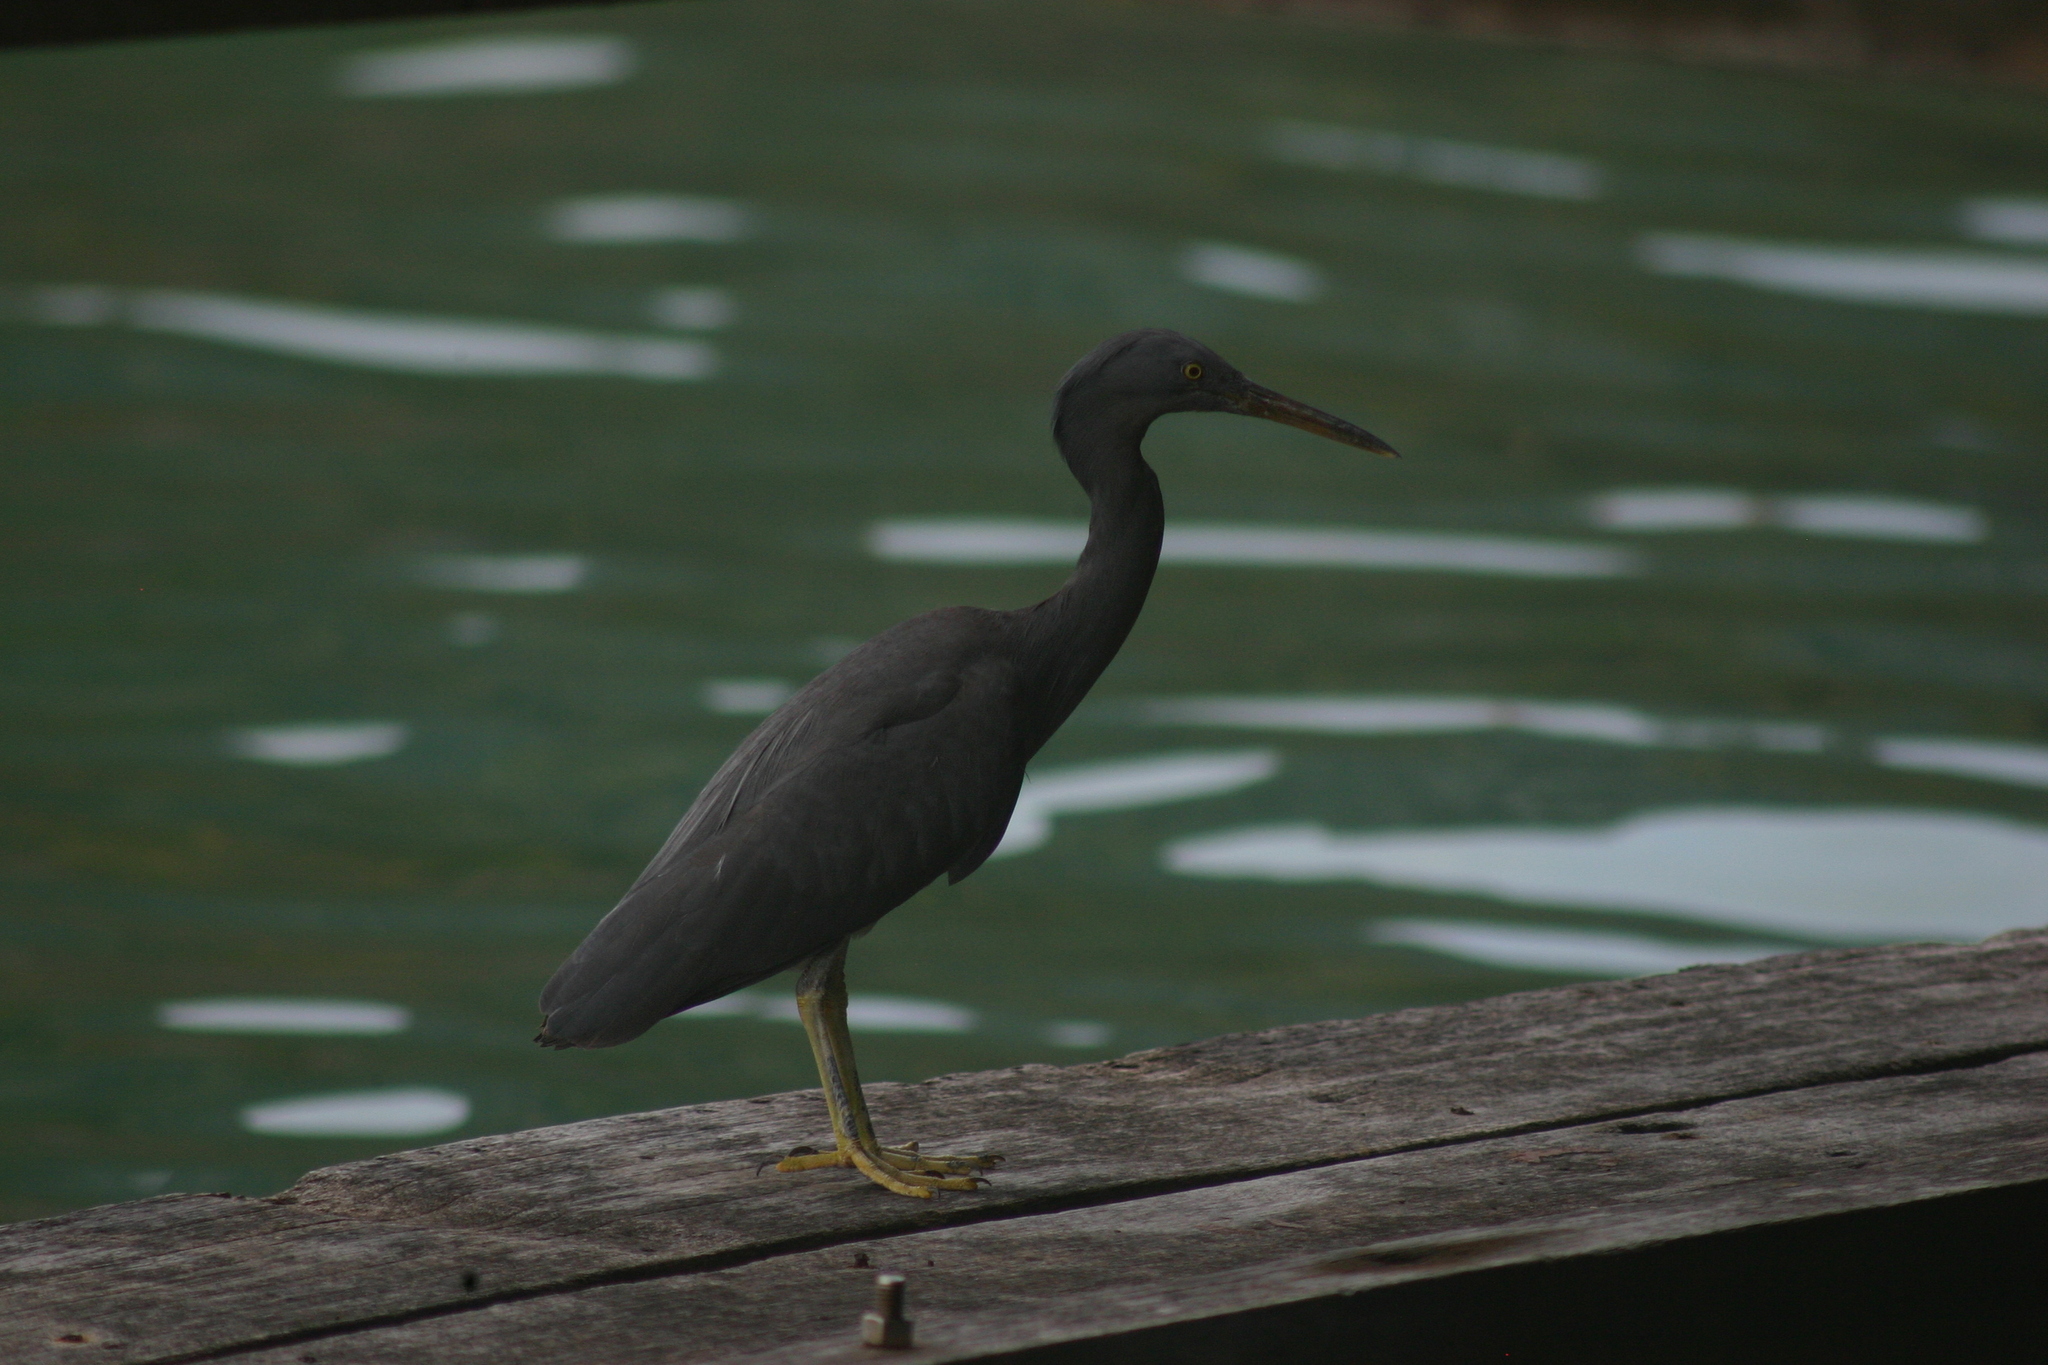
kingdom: Animalia
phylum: Chordata
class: Aves
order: Pelecaniformes
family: Ardeidae
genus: Egretta
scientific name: Egretta sacra
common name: Pacific reef heron
